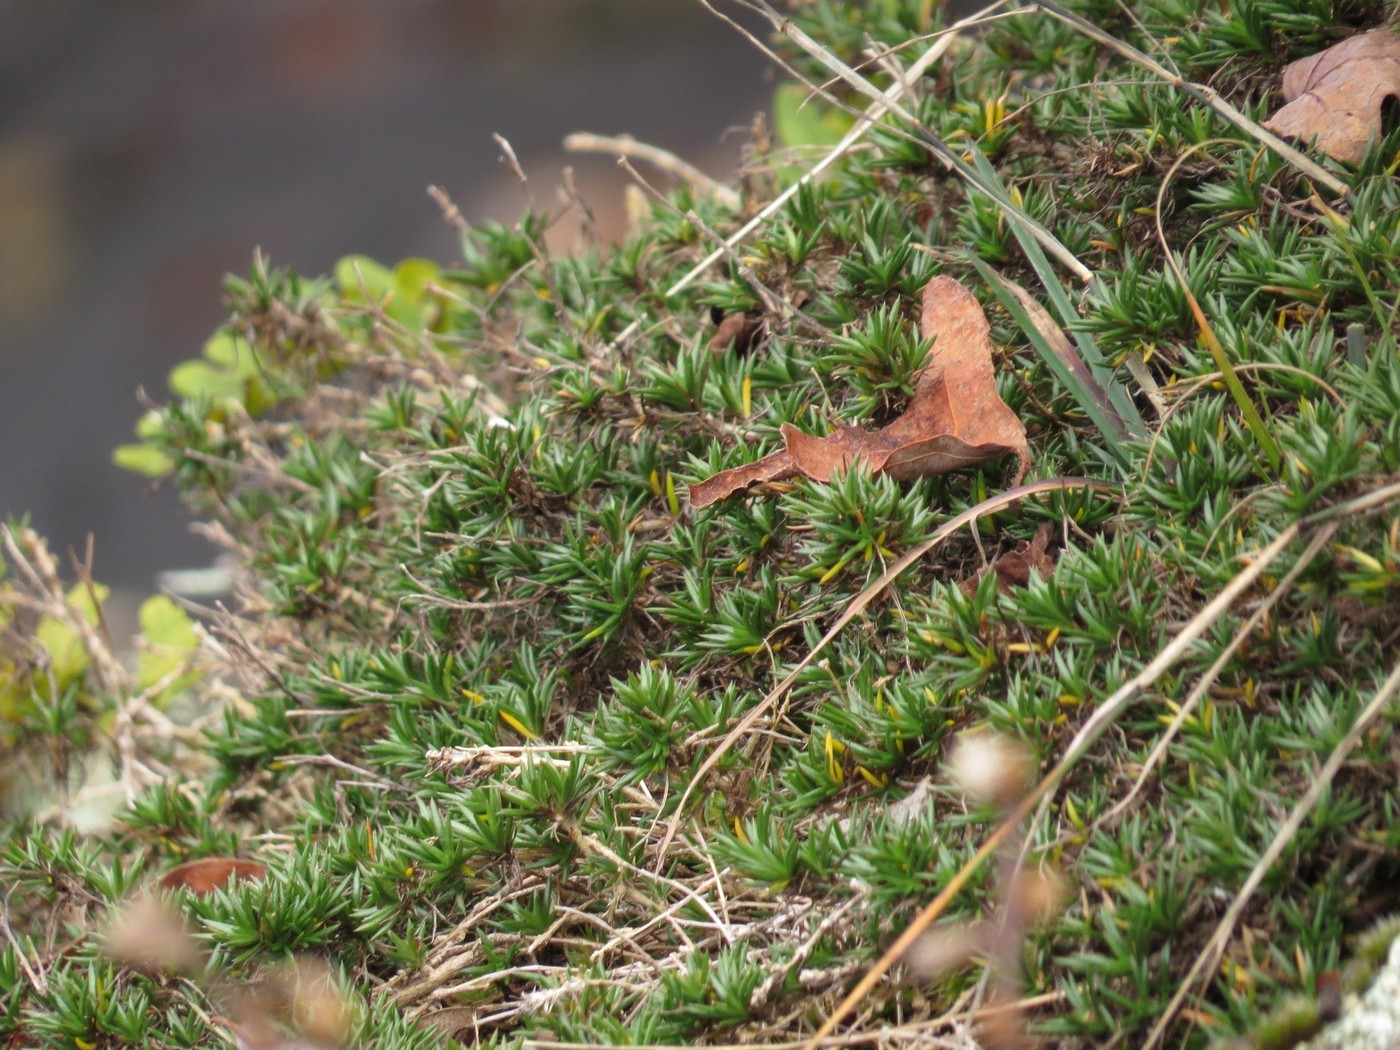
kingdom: Plantae
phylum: Tracheophyta
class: Magnoliopsida
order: Ericales
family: Polemoniaceae
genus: Phlox
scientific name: Phlox subulata
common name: Moss phlox
